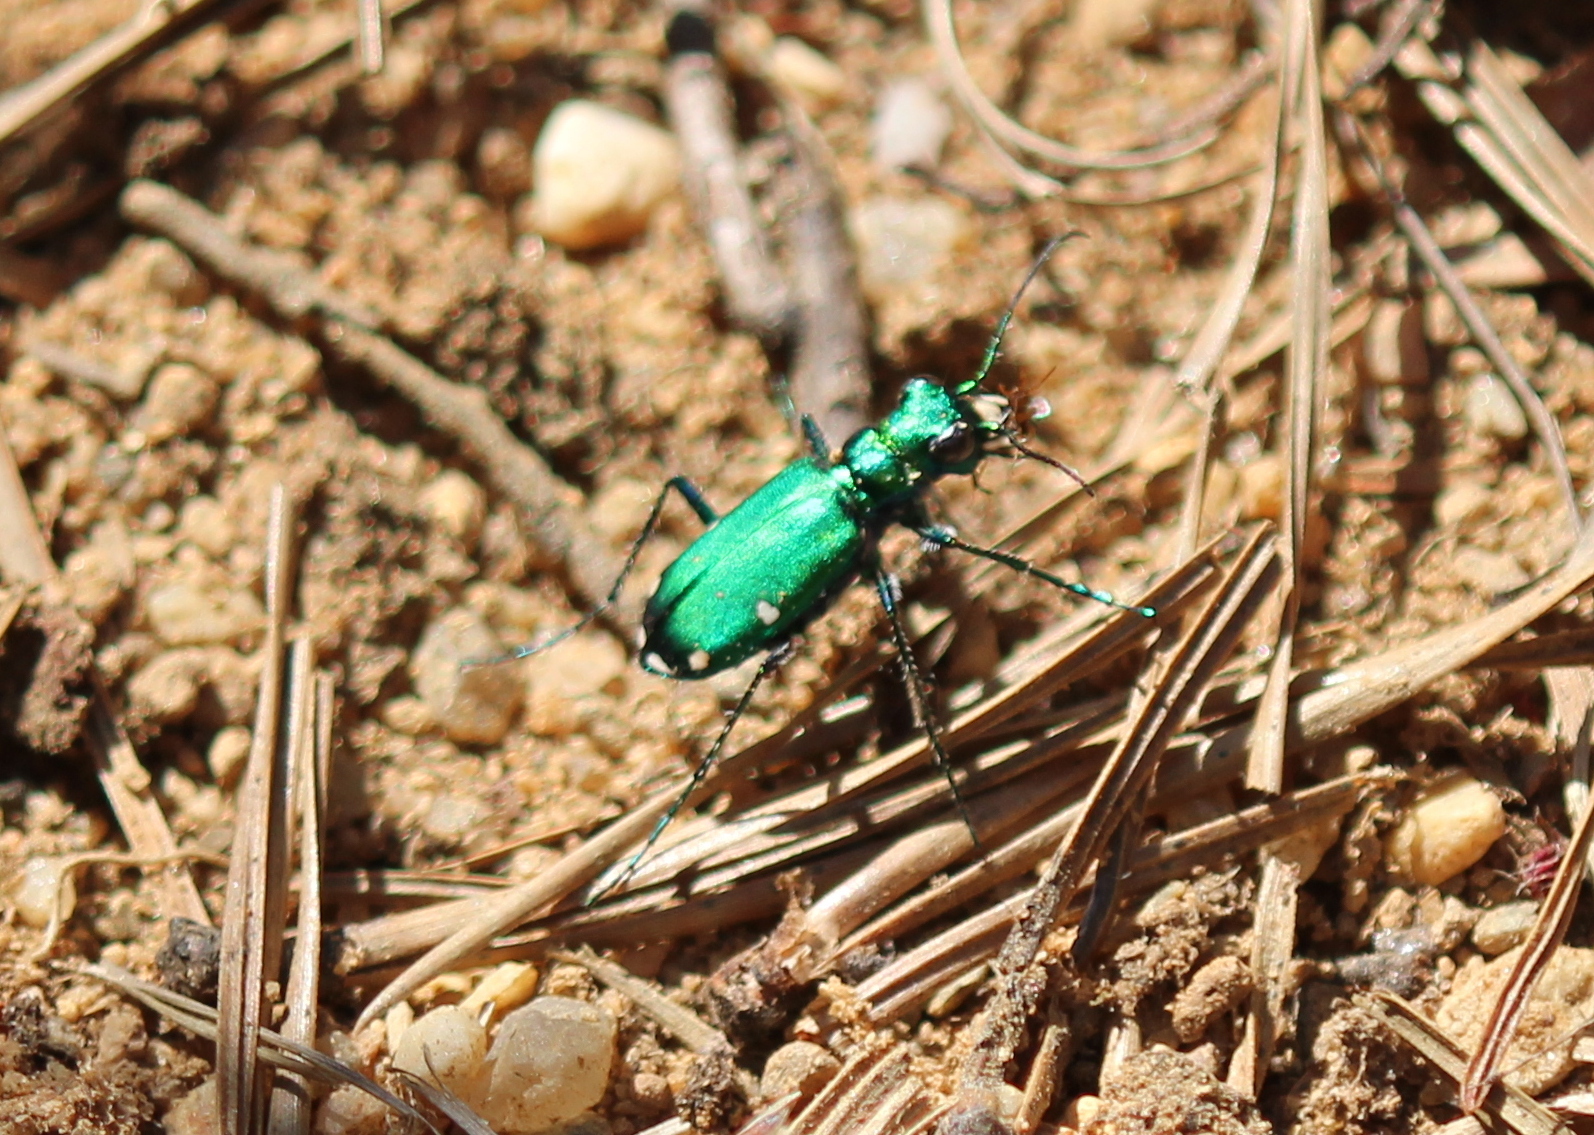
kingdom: Animalia
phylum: Arthropoda
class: Insecta
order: Coleoptera
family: Carabidae
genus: Cicindela
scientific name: Cicindela sexguttata
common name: Six-spotted tiger beetle
